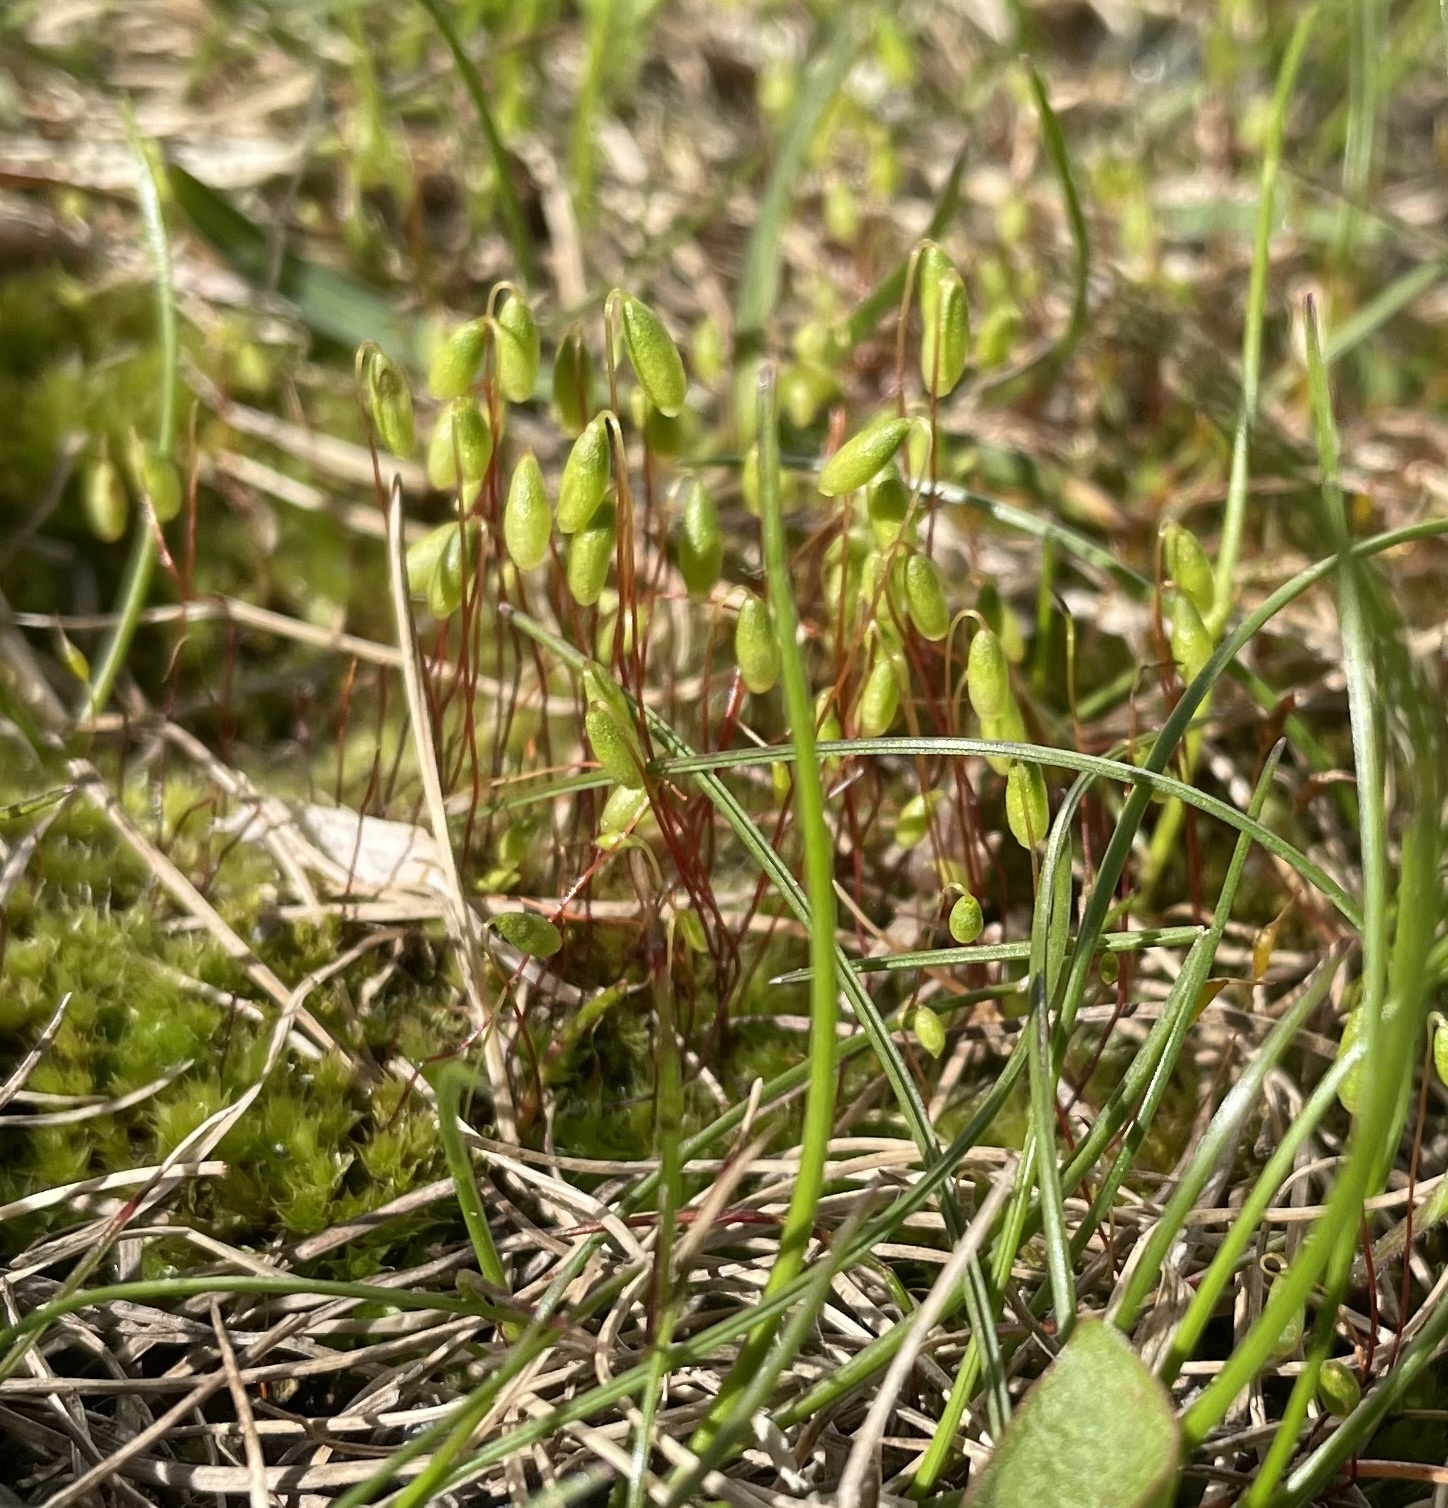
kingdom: Plantae
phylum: Bryophyta
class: Bryopsida
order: Bryales
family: Mniaceae
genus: Pohlia
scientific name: Pohlia nutans
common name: Nodding thread-moss
